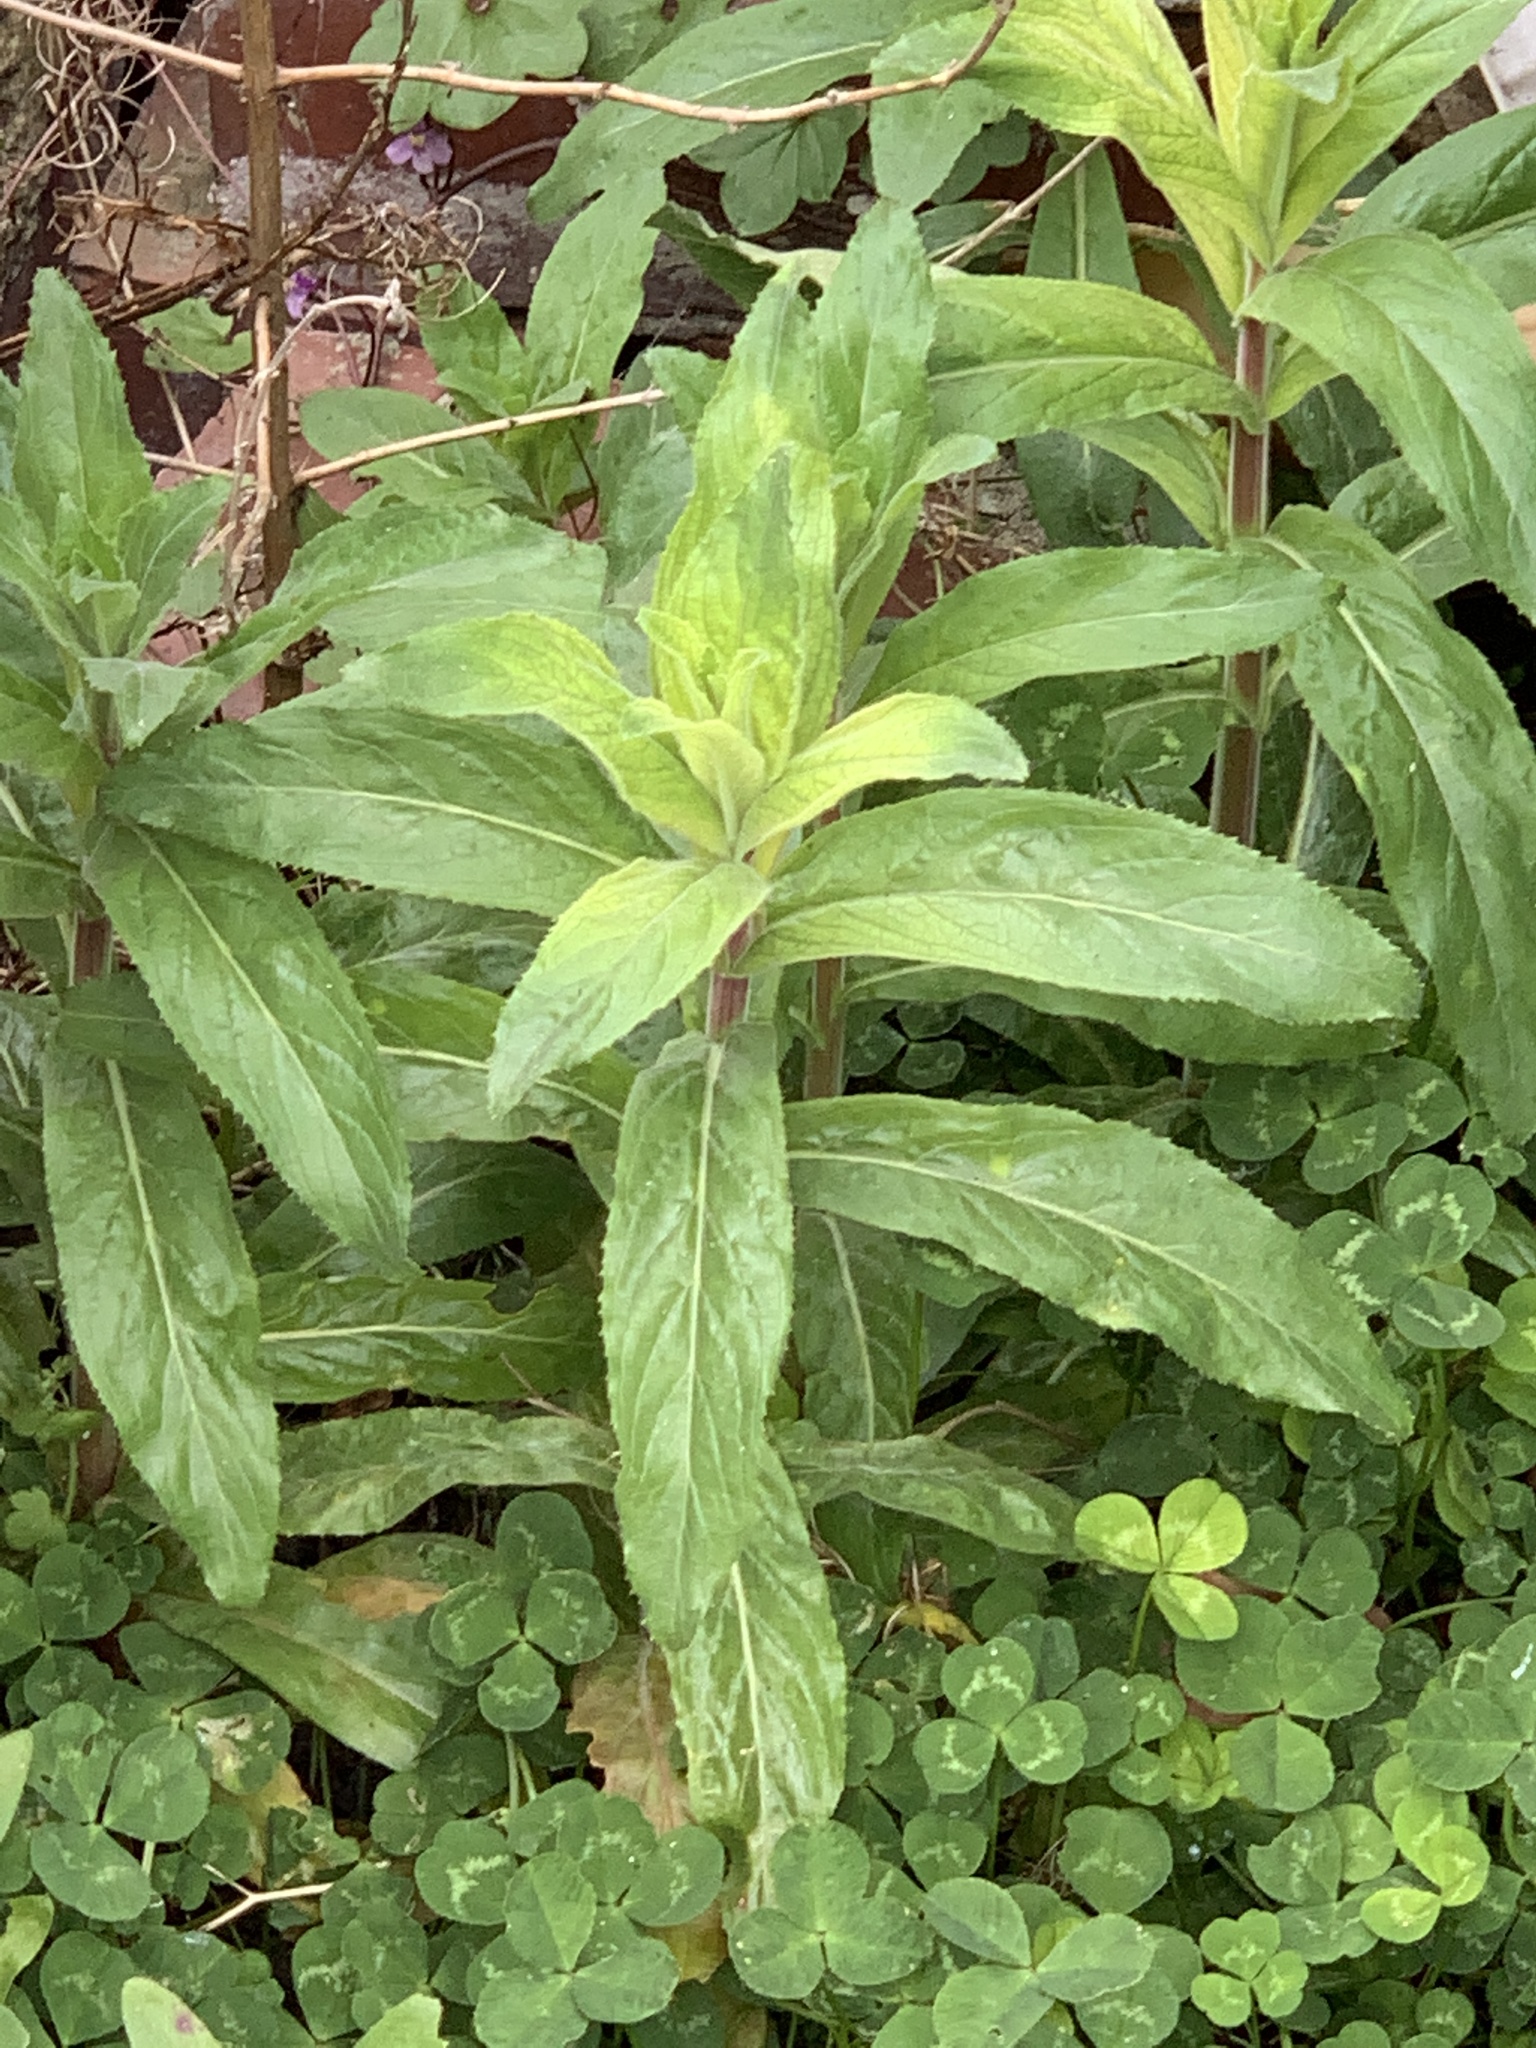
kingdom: Plantae
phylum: Tracheophyta
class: Magnoliopsida
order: Myrtales
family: Onagraceae
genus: Epilobium
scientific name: Epilobium hirsutum
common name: Great willowherb
